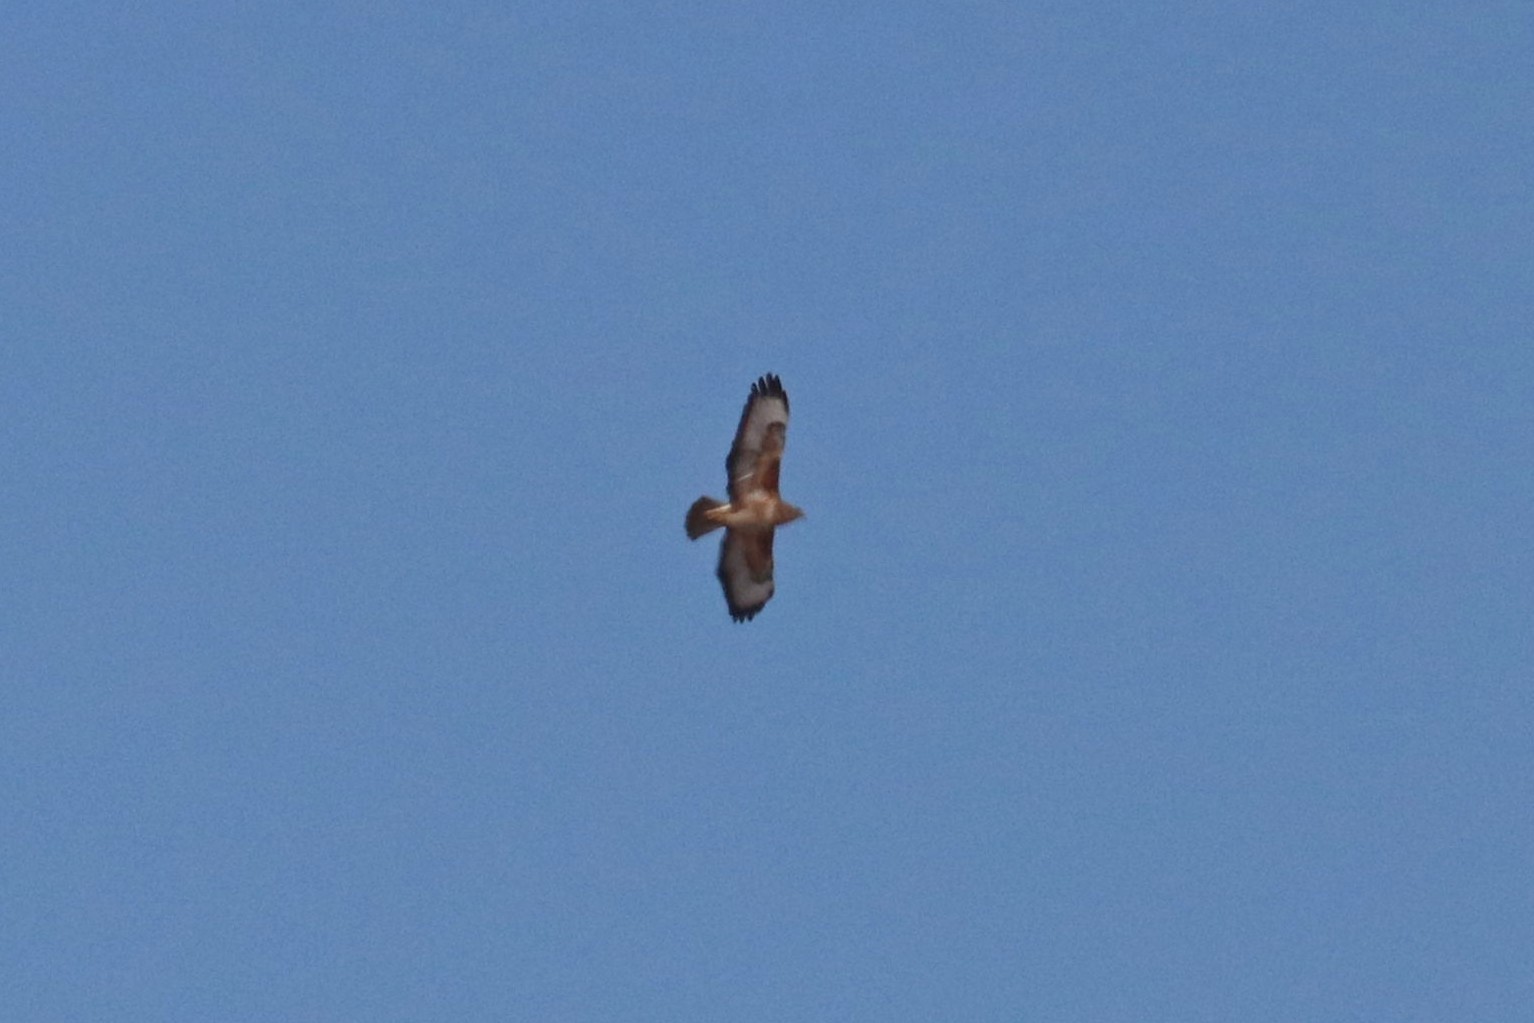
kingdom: Animalia
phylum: Chordata
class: Aves
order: Accipitriformes
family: Accipitridae
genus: Buteo
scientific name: Buteo buteo
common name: Common buzzard
